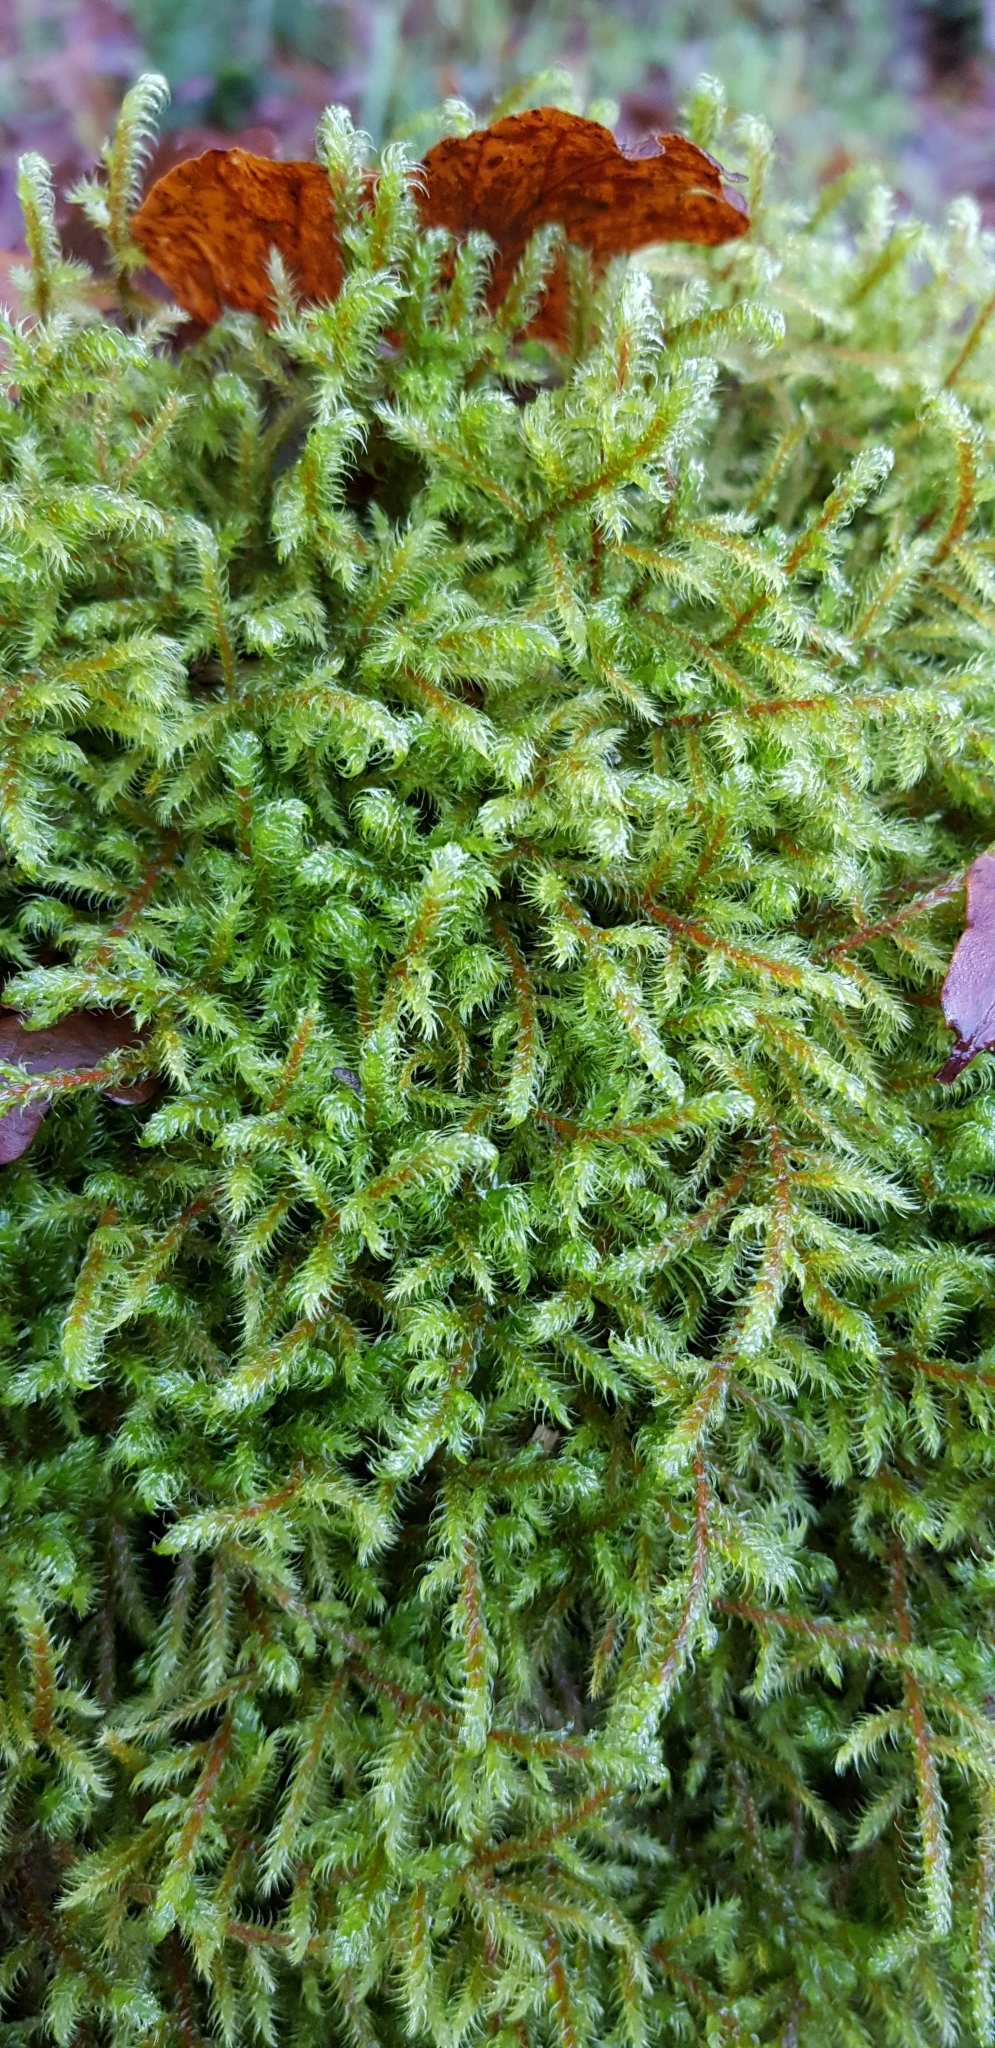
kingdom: Plantae
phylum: Bryophyta
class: Bryopsida
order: Hypnales
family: Hylocomiaceae
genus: Rhytidiadelphus
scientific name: Rhytidiadelphus loreus
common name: Lanky moss
